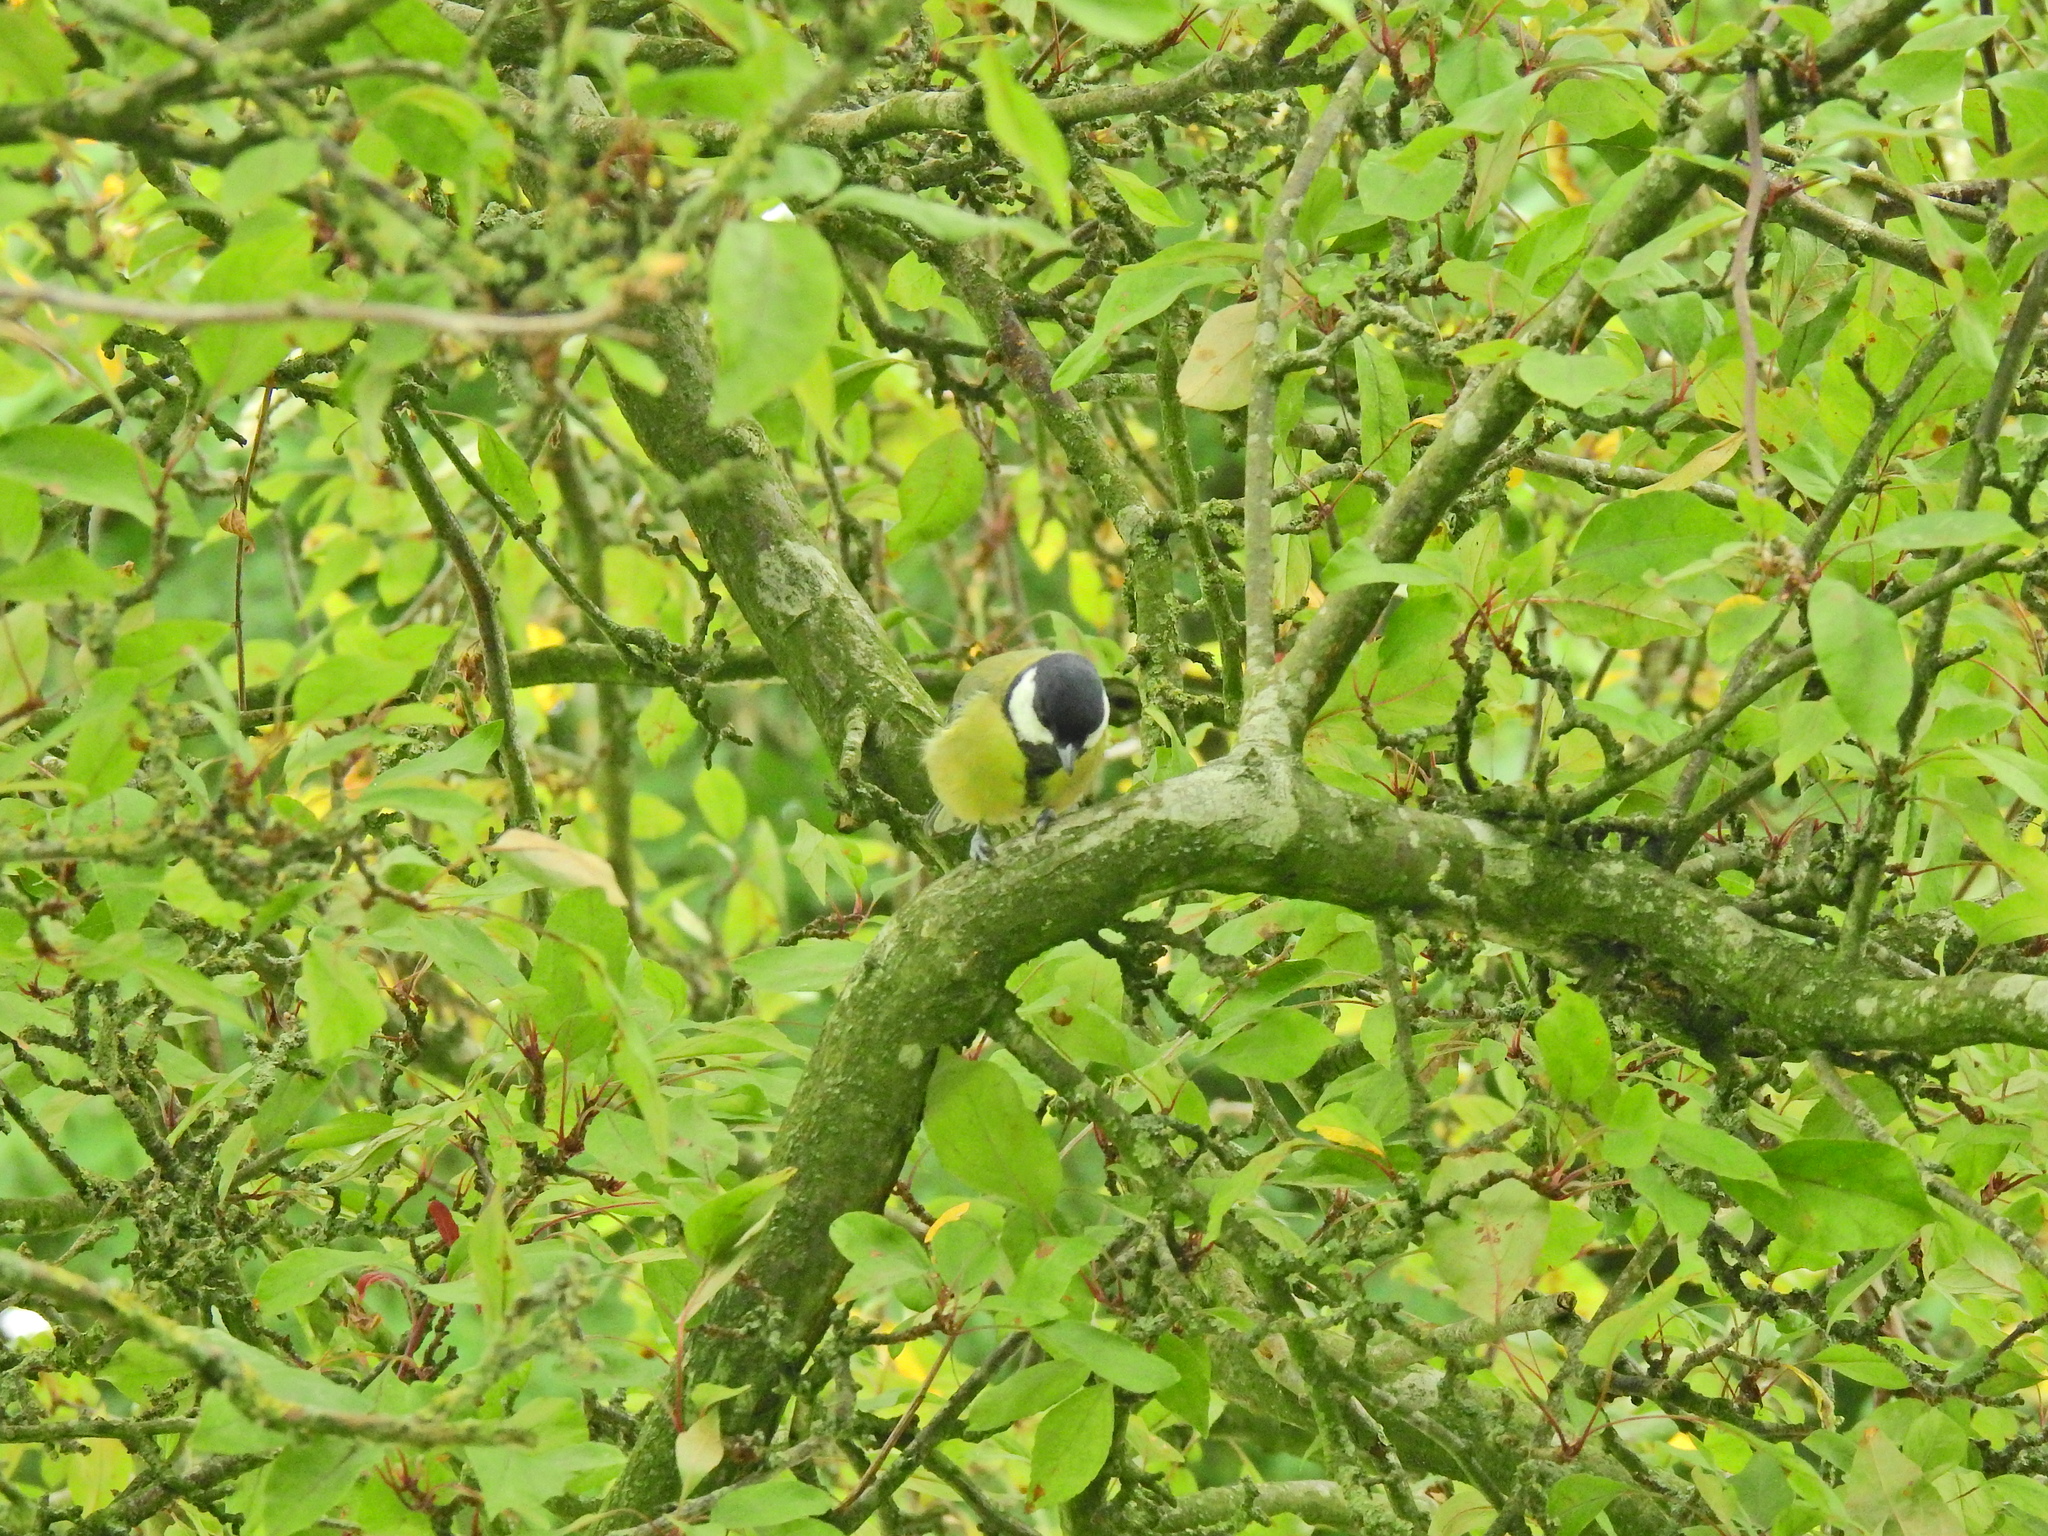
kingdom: Animalia
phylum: Chordata
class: Aves
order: Passeriformes
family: Paridae
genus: Parus
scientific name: Parus major
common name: Great tit
